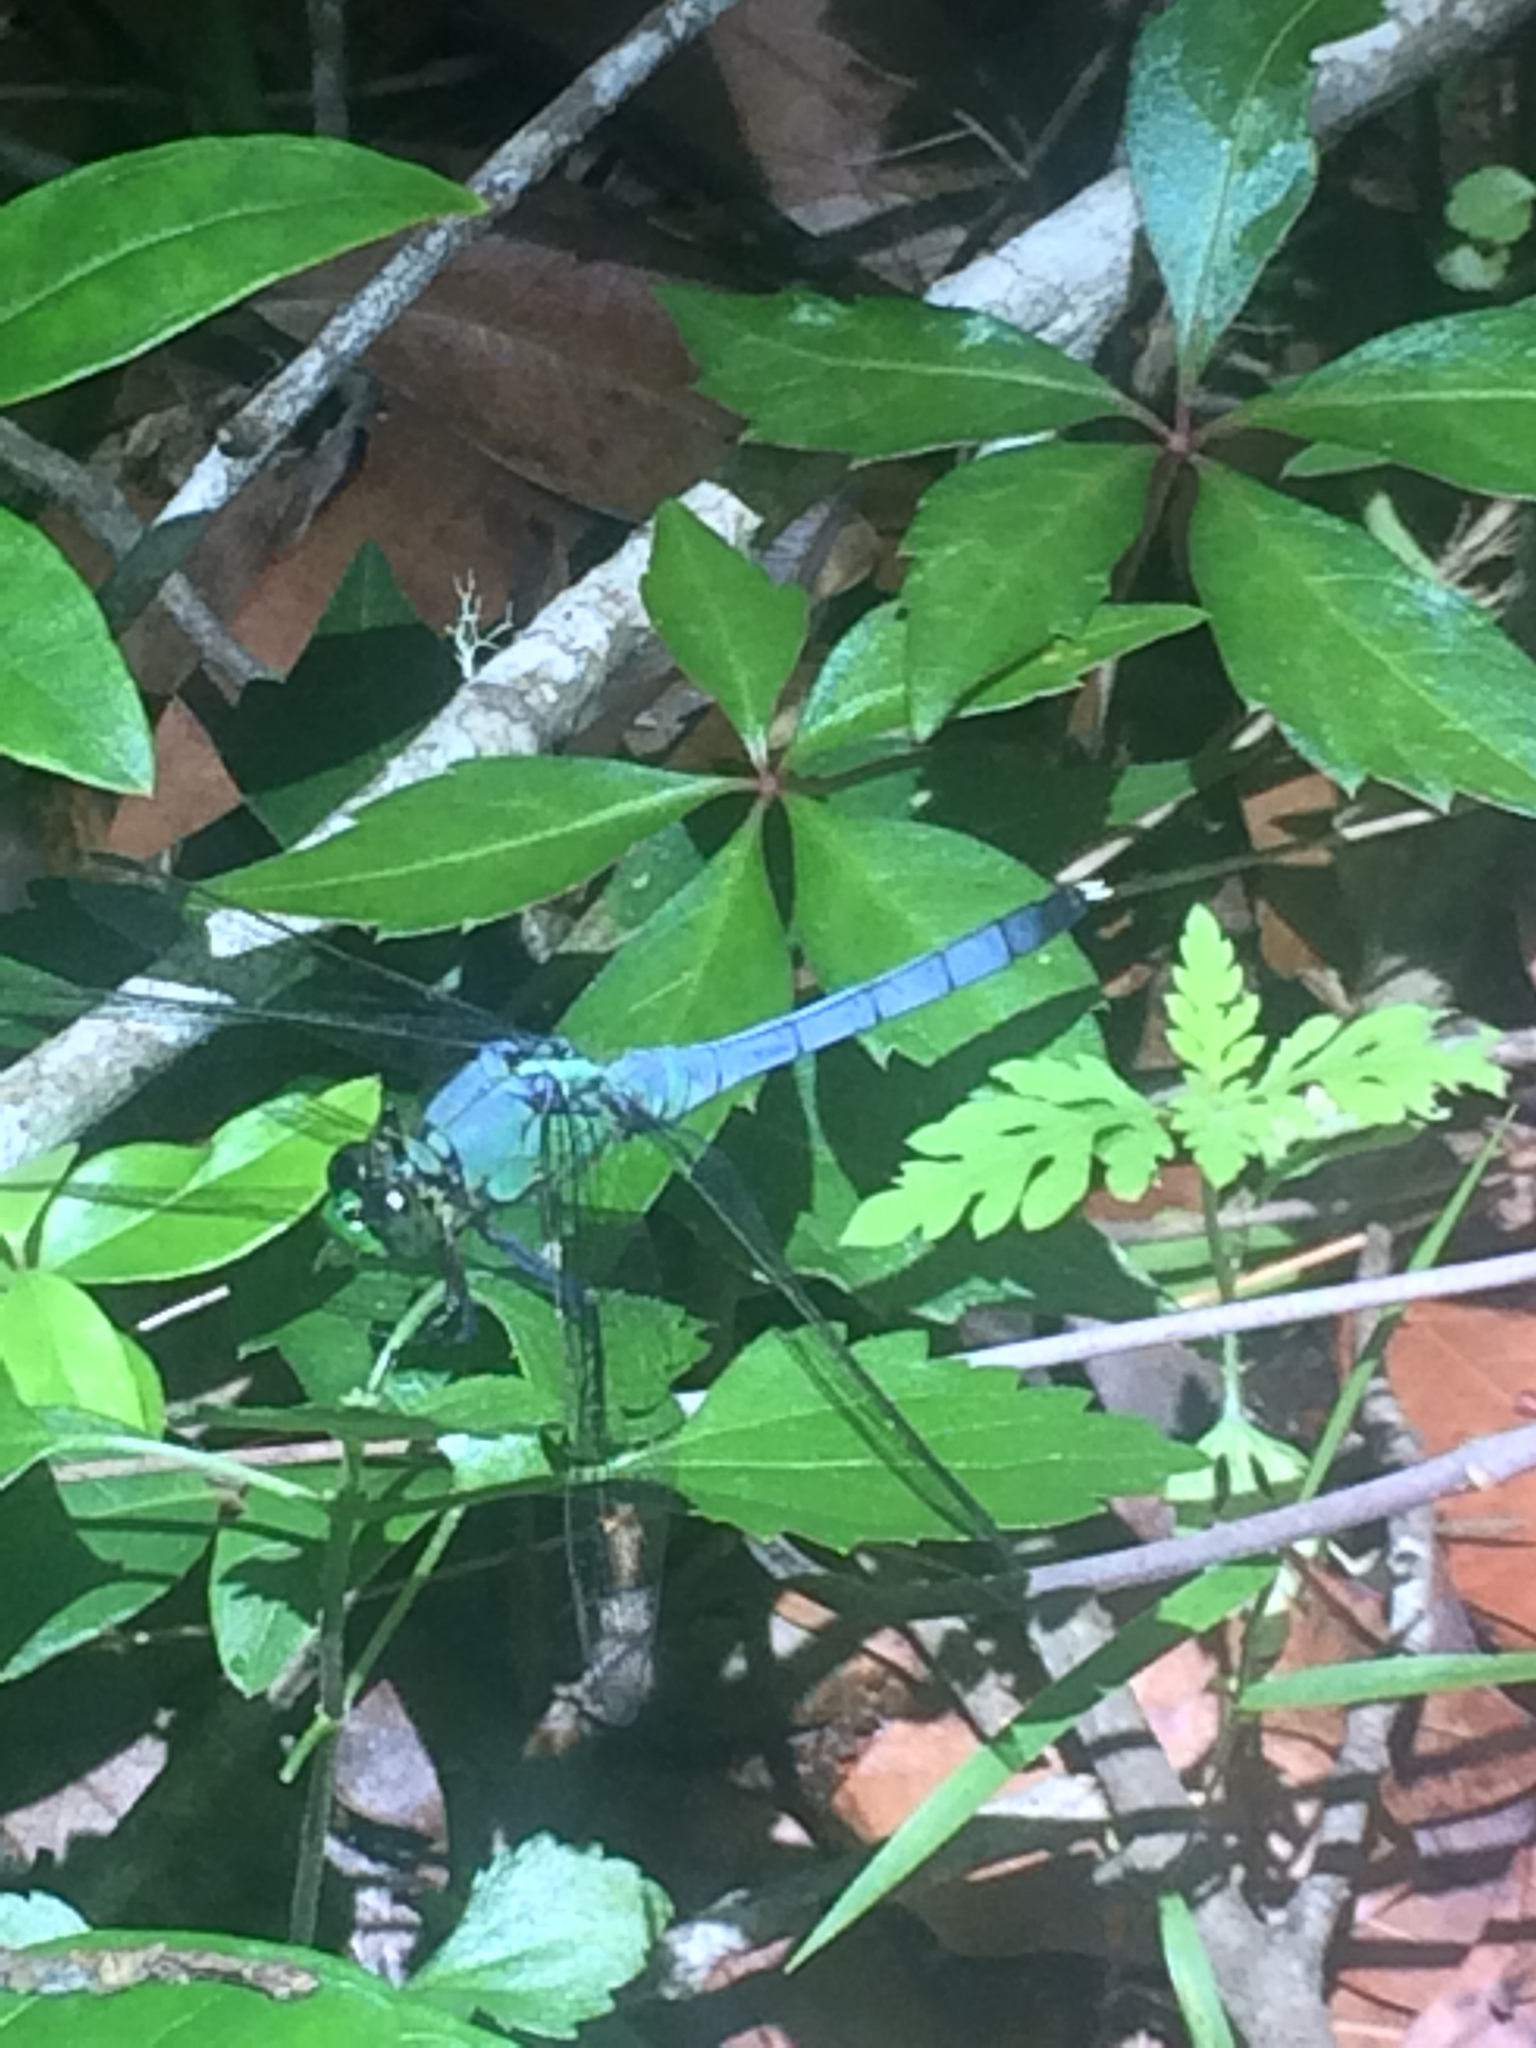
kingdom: Animalia
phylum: Arthropoda
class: Insecta
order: Odonata
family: Libellulidae
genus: Erythemis
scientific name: Erythemis simplicicollis
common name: Eastern pondhawk
